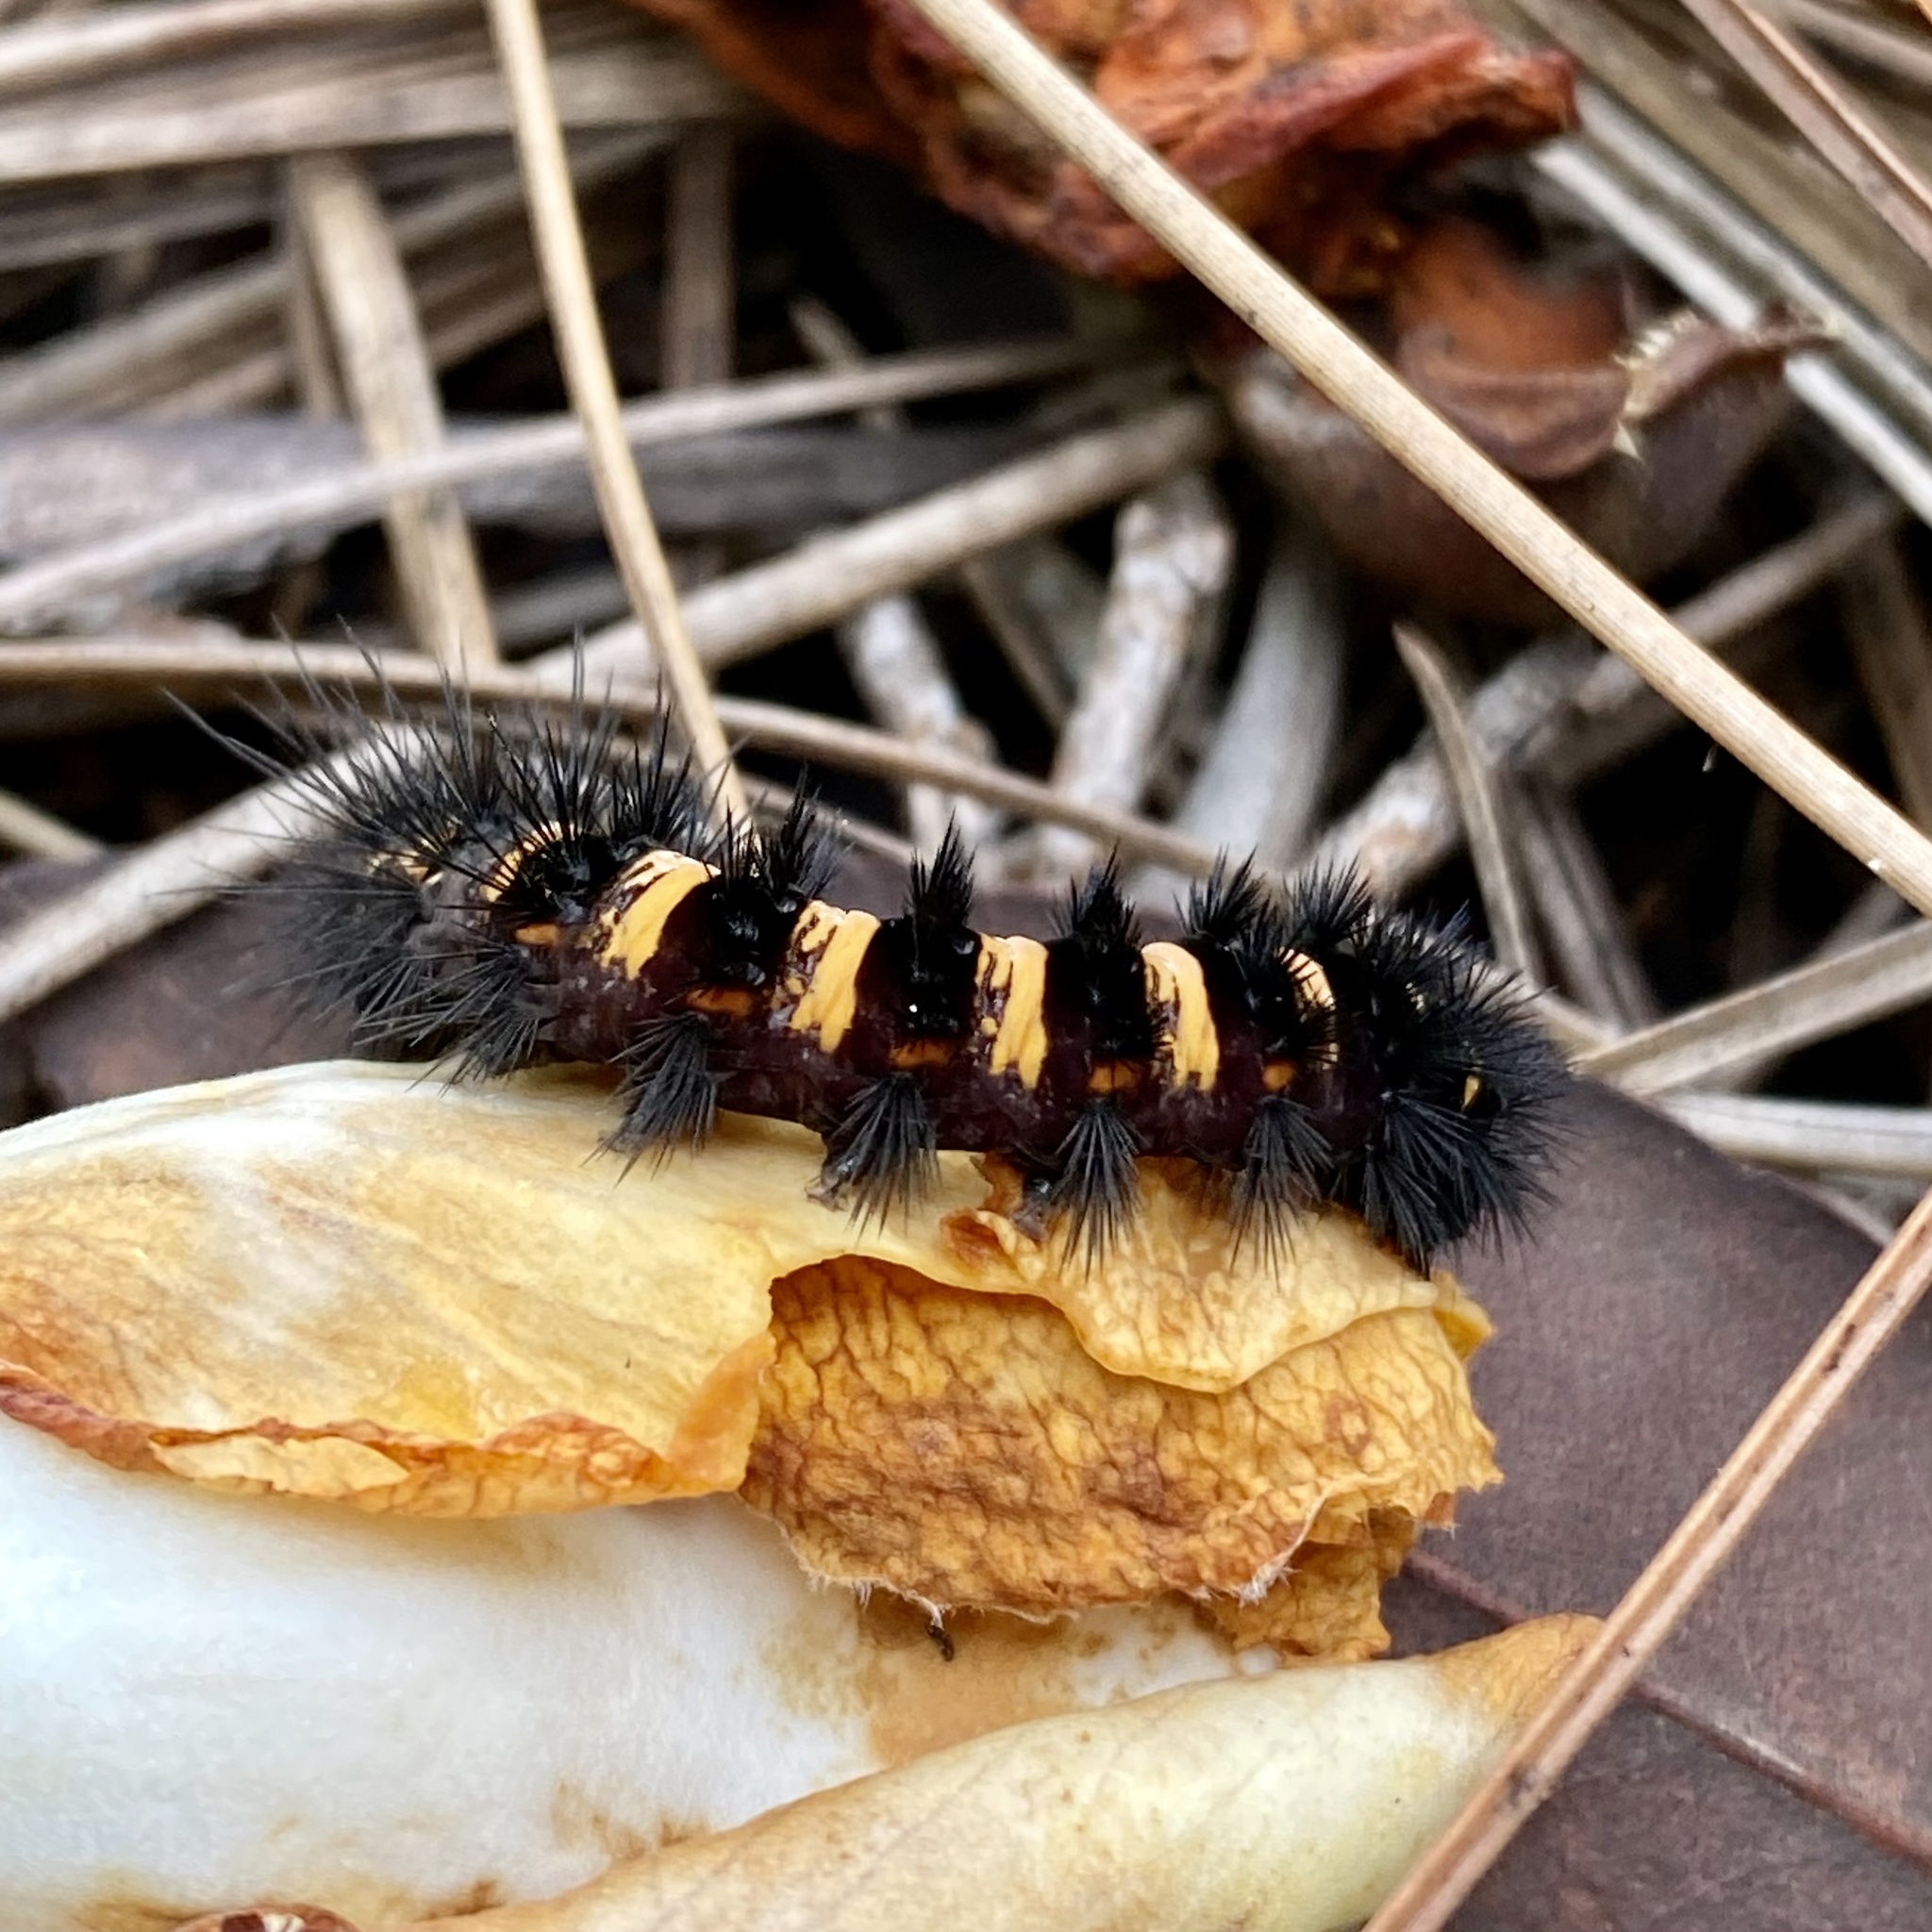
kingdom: Animalia
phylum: Arthropoda
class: Insecta
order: Lepidoptera
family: Erebidae
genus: Spilosoma
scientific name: Spilosoma congrua
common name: Agreeable tiger moth
